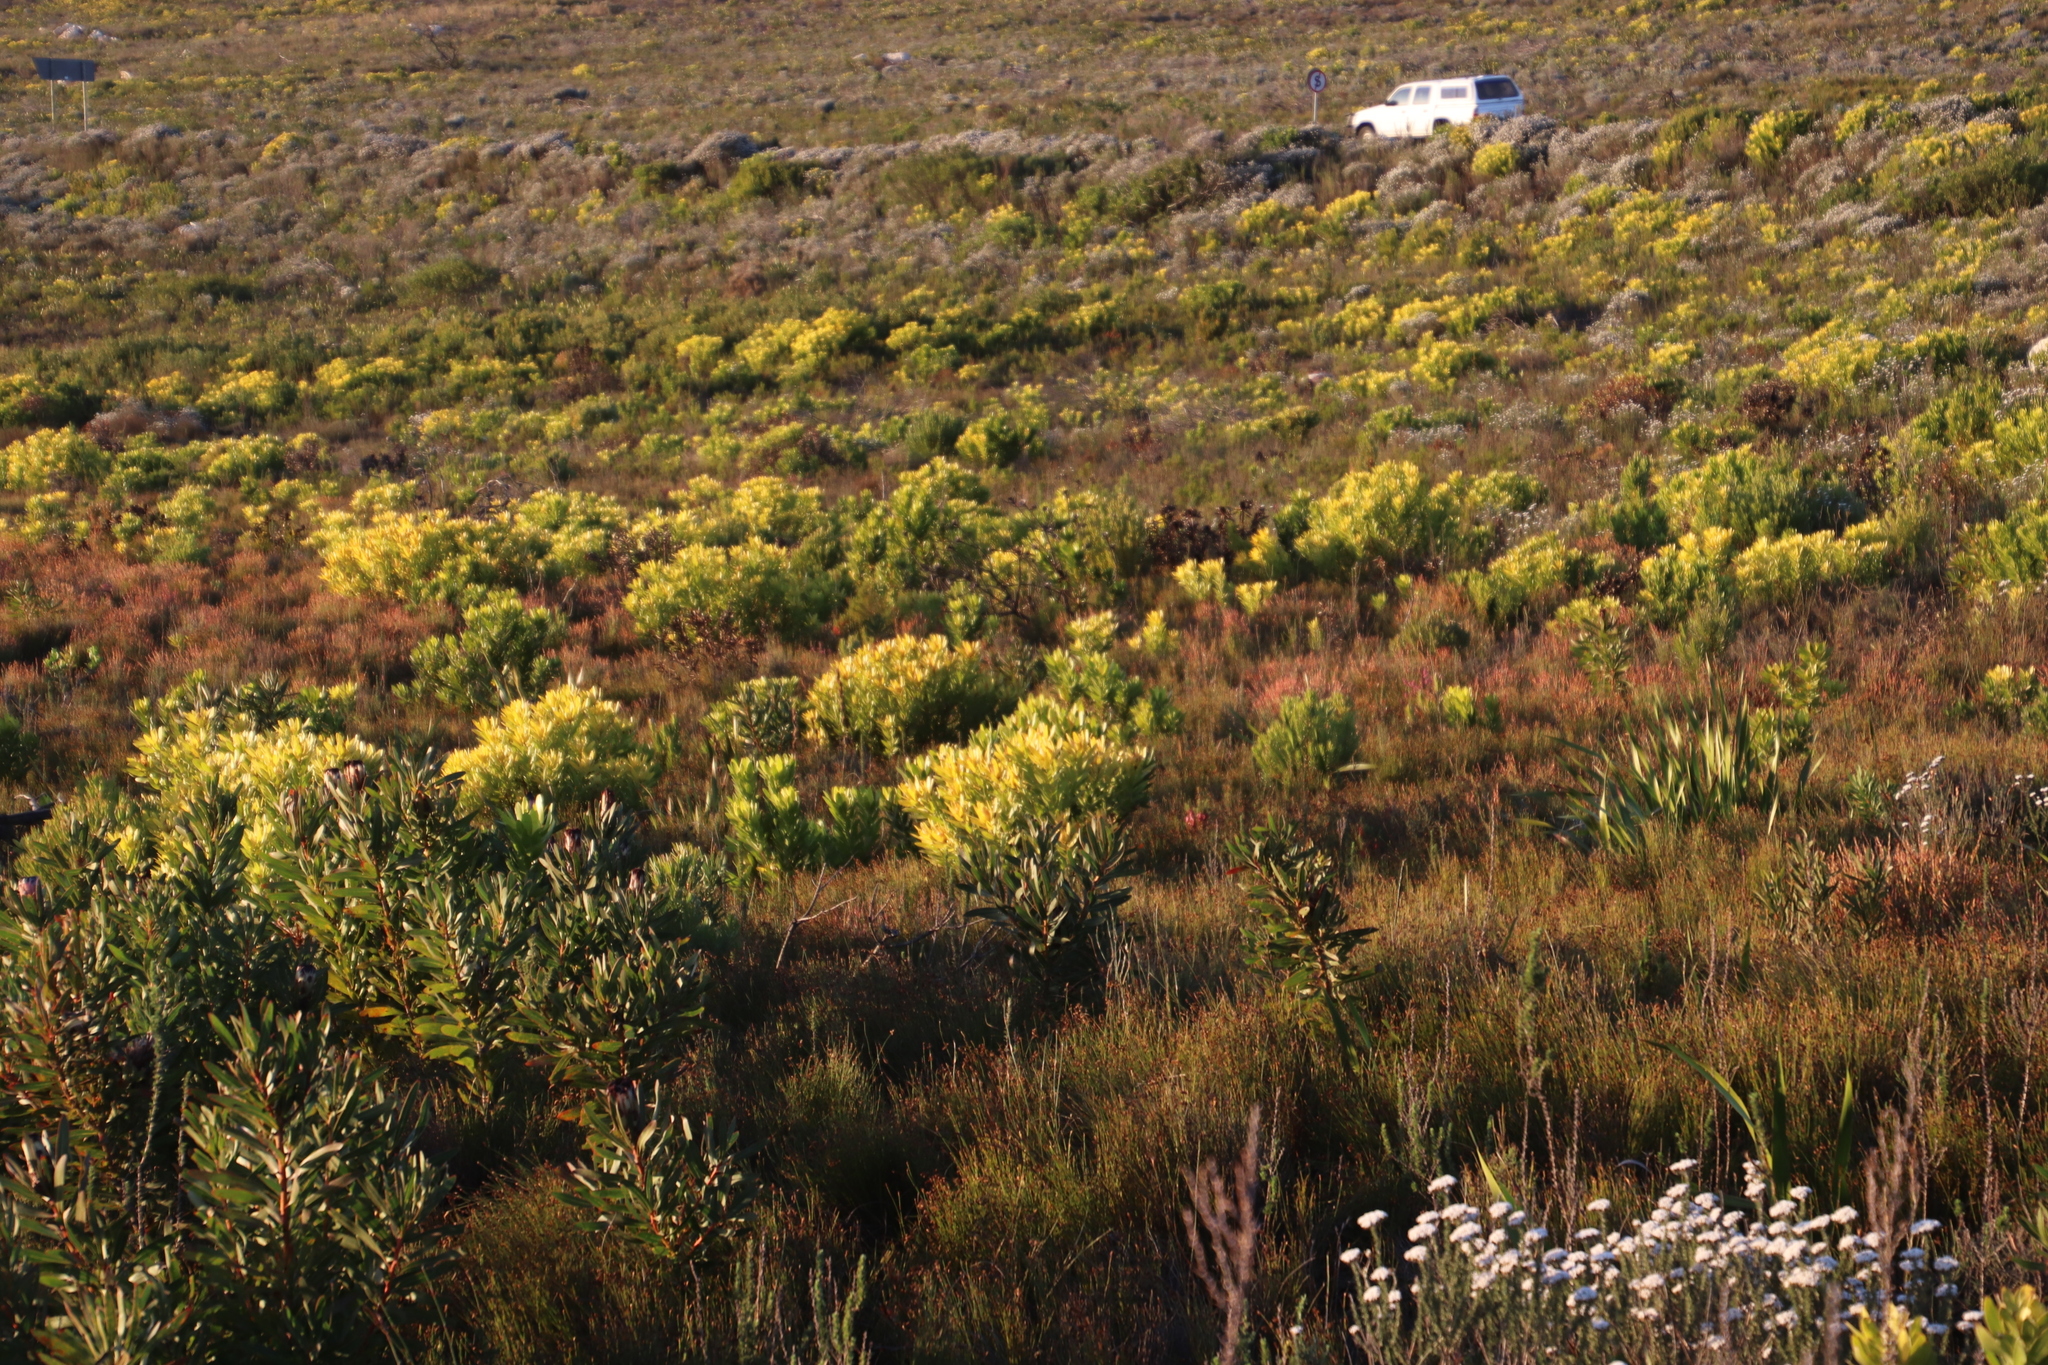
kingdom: Plantae
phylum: Tracheophyta
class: Magnoliopsida
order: Proteales
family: Proteaceae
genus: Leucadendron
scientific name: Leucadendron laureolum
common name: Golden sunshinebush
